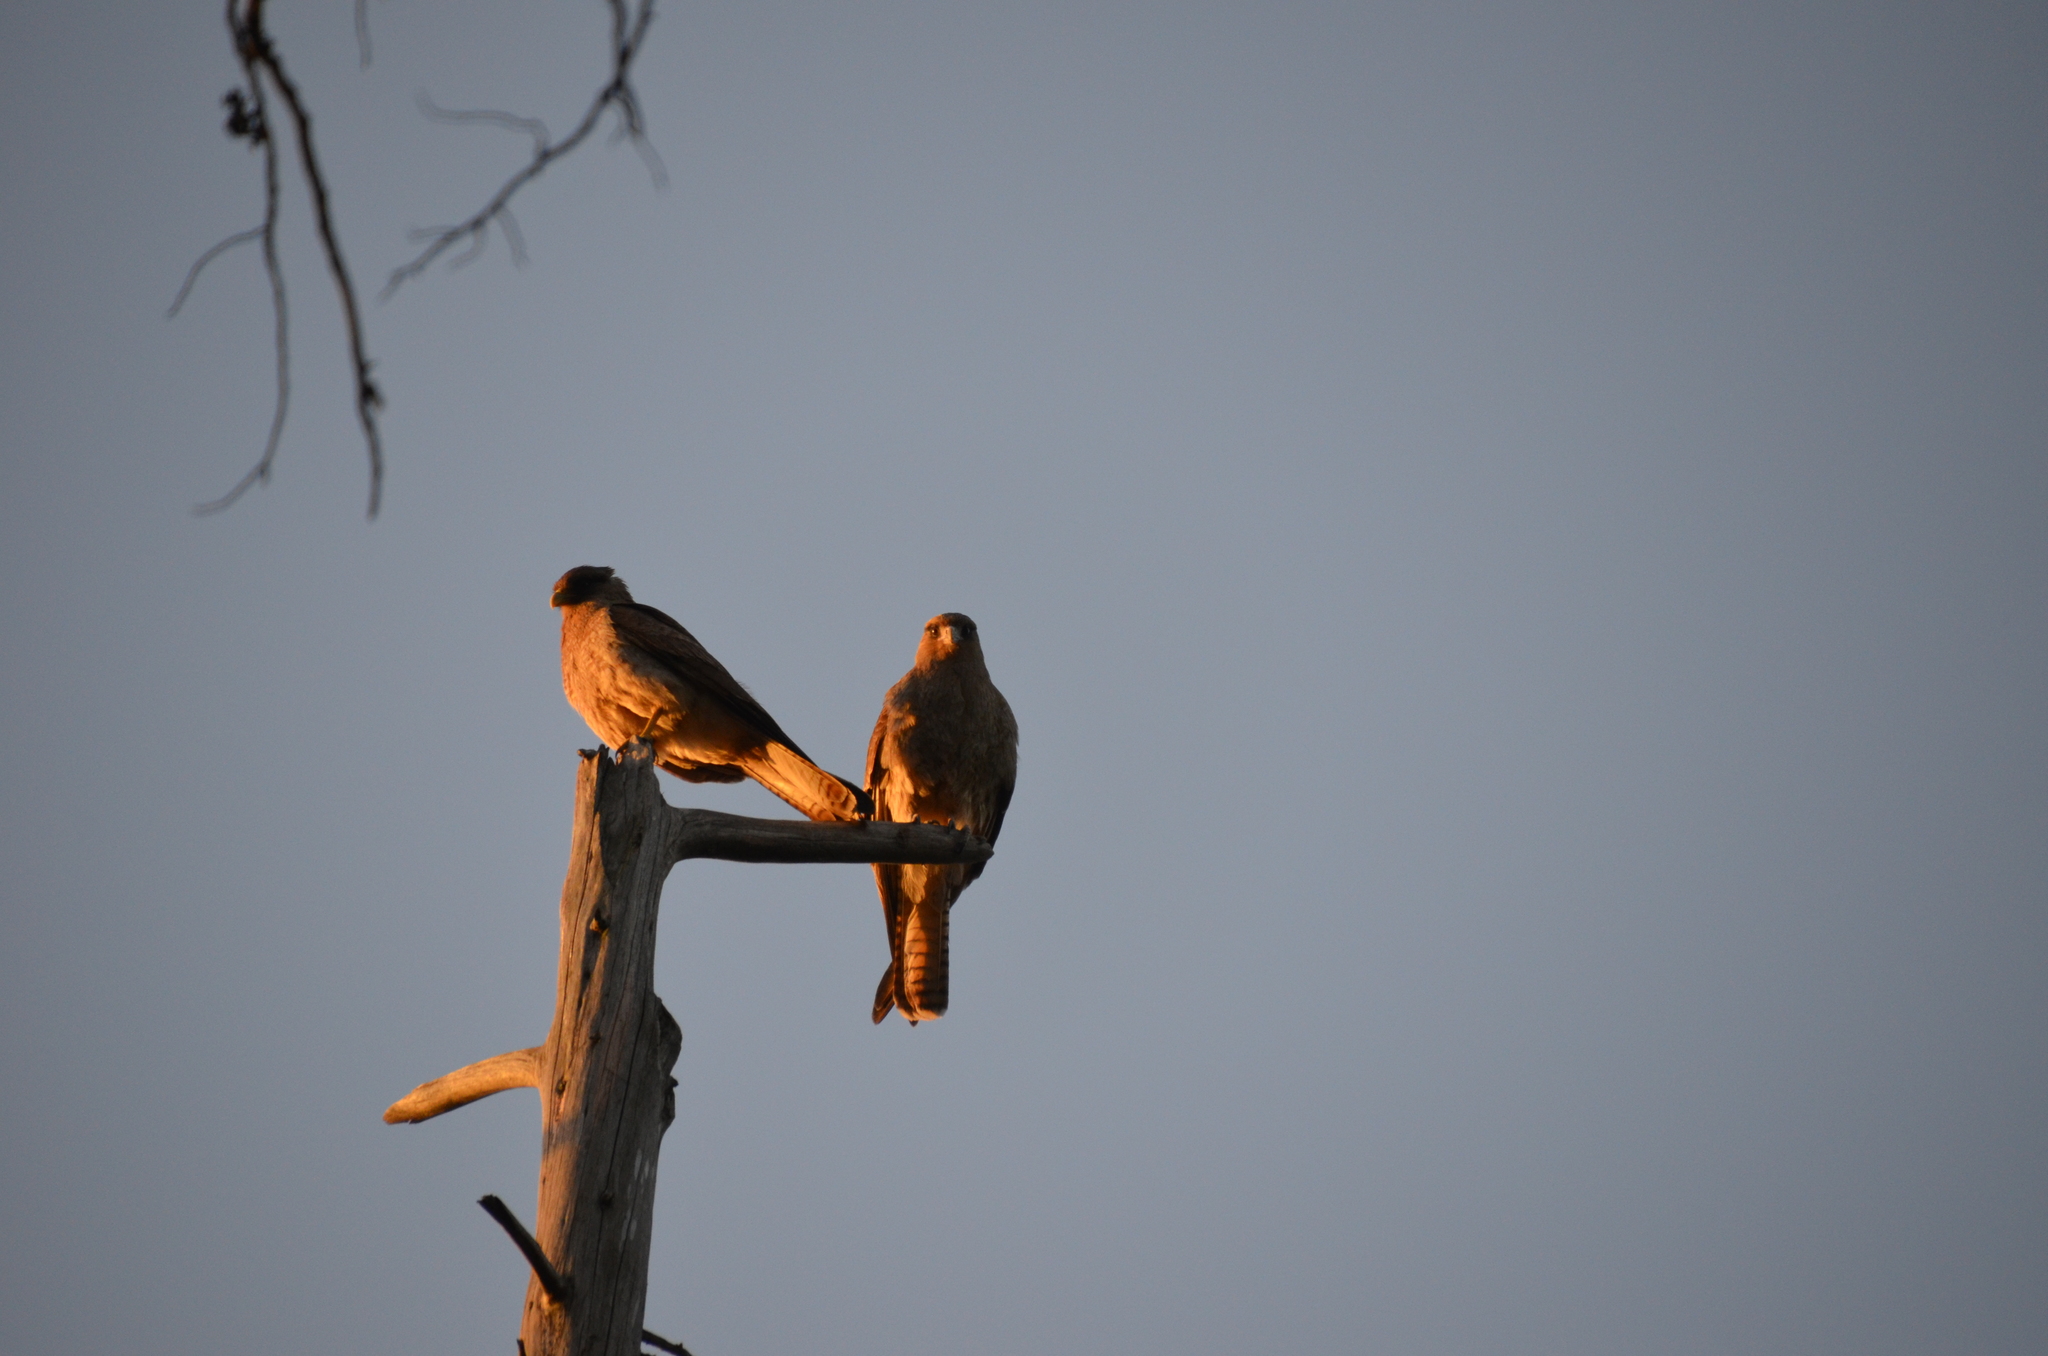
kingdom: Animalia
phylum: Chordata
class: Aves
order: Falconiformes
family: Falconidae
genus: Daptrius
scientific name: Daptrius
